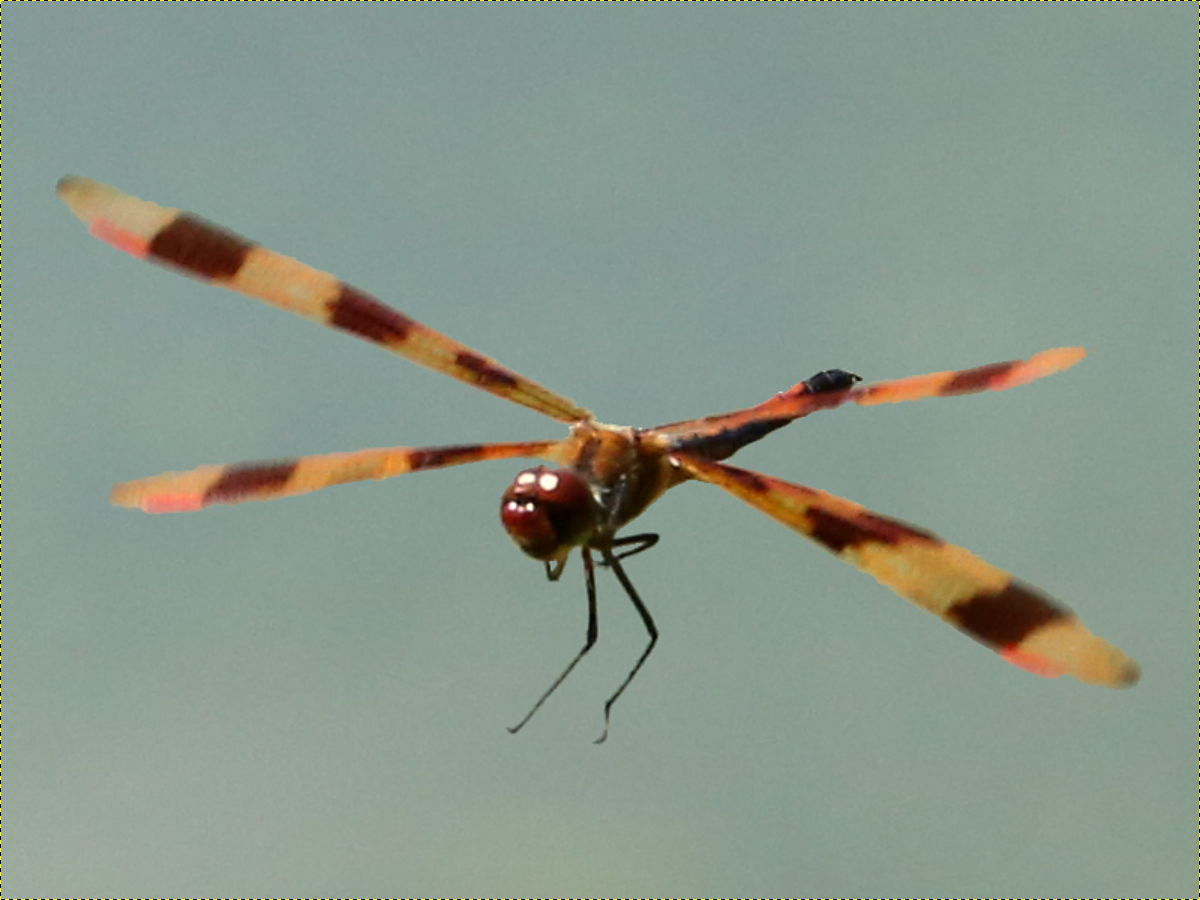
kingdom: Animalia
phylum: Arthropoda
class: Insecta
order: Odonata
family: Libellulidae
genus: Celithemis
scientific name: Celithemis eponina
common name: Halloween pennant
